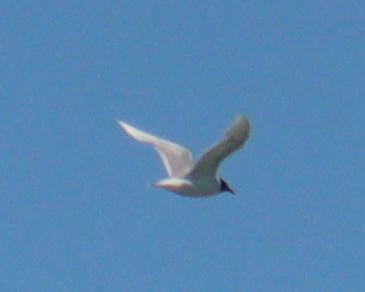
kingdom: Animalia
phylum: Chordata
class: Aves
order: Charadriiformes
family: Laridae
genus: Ichthyaetus
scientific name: Ichthyaetus melanocephalus
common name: Mediterranean gull
